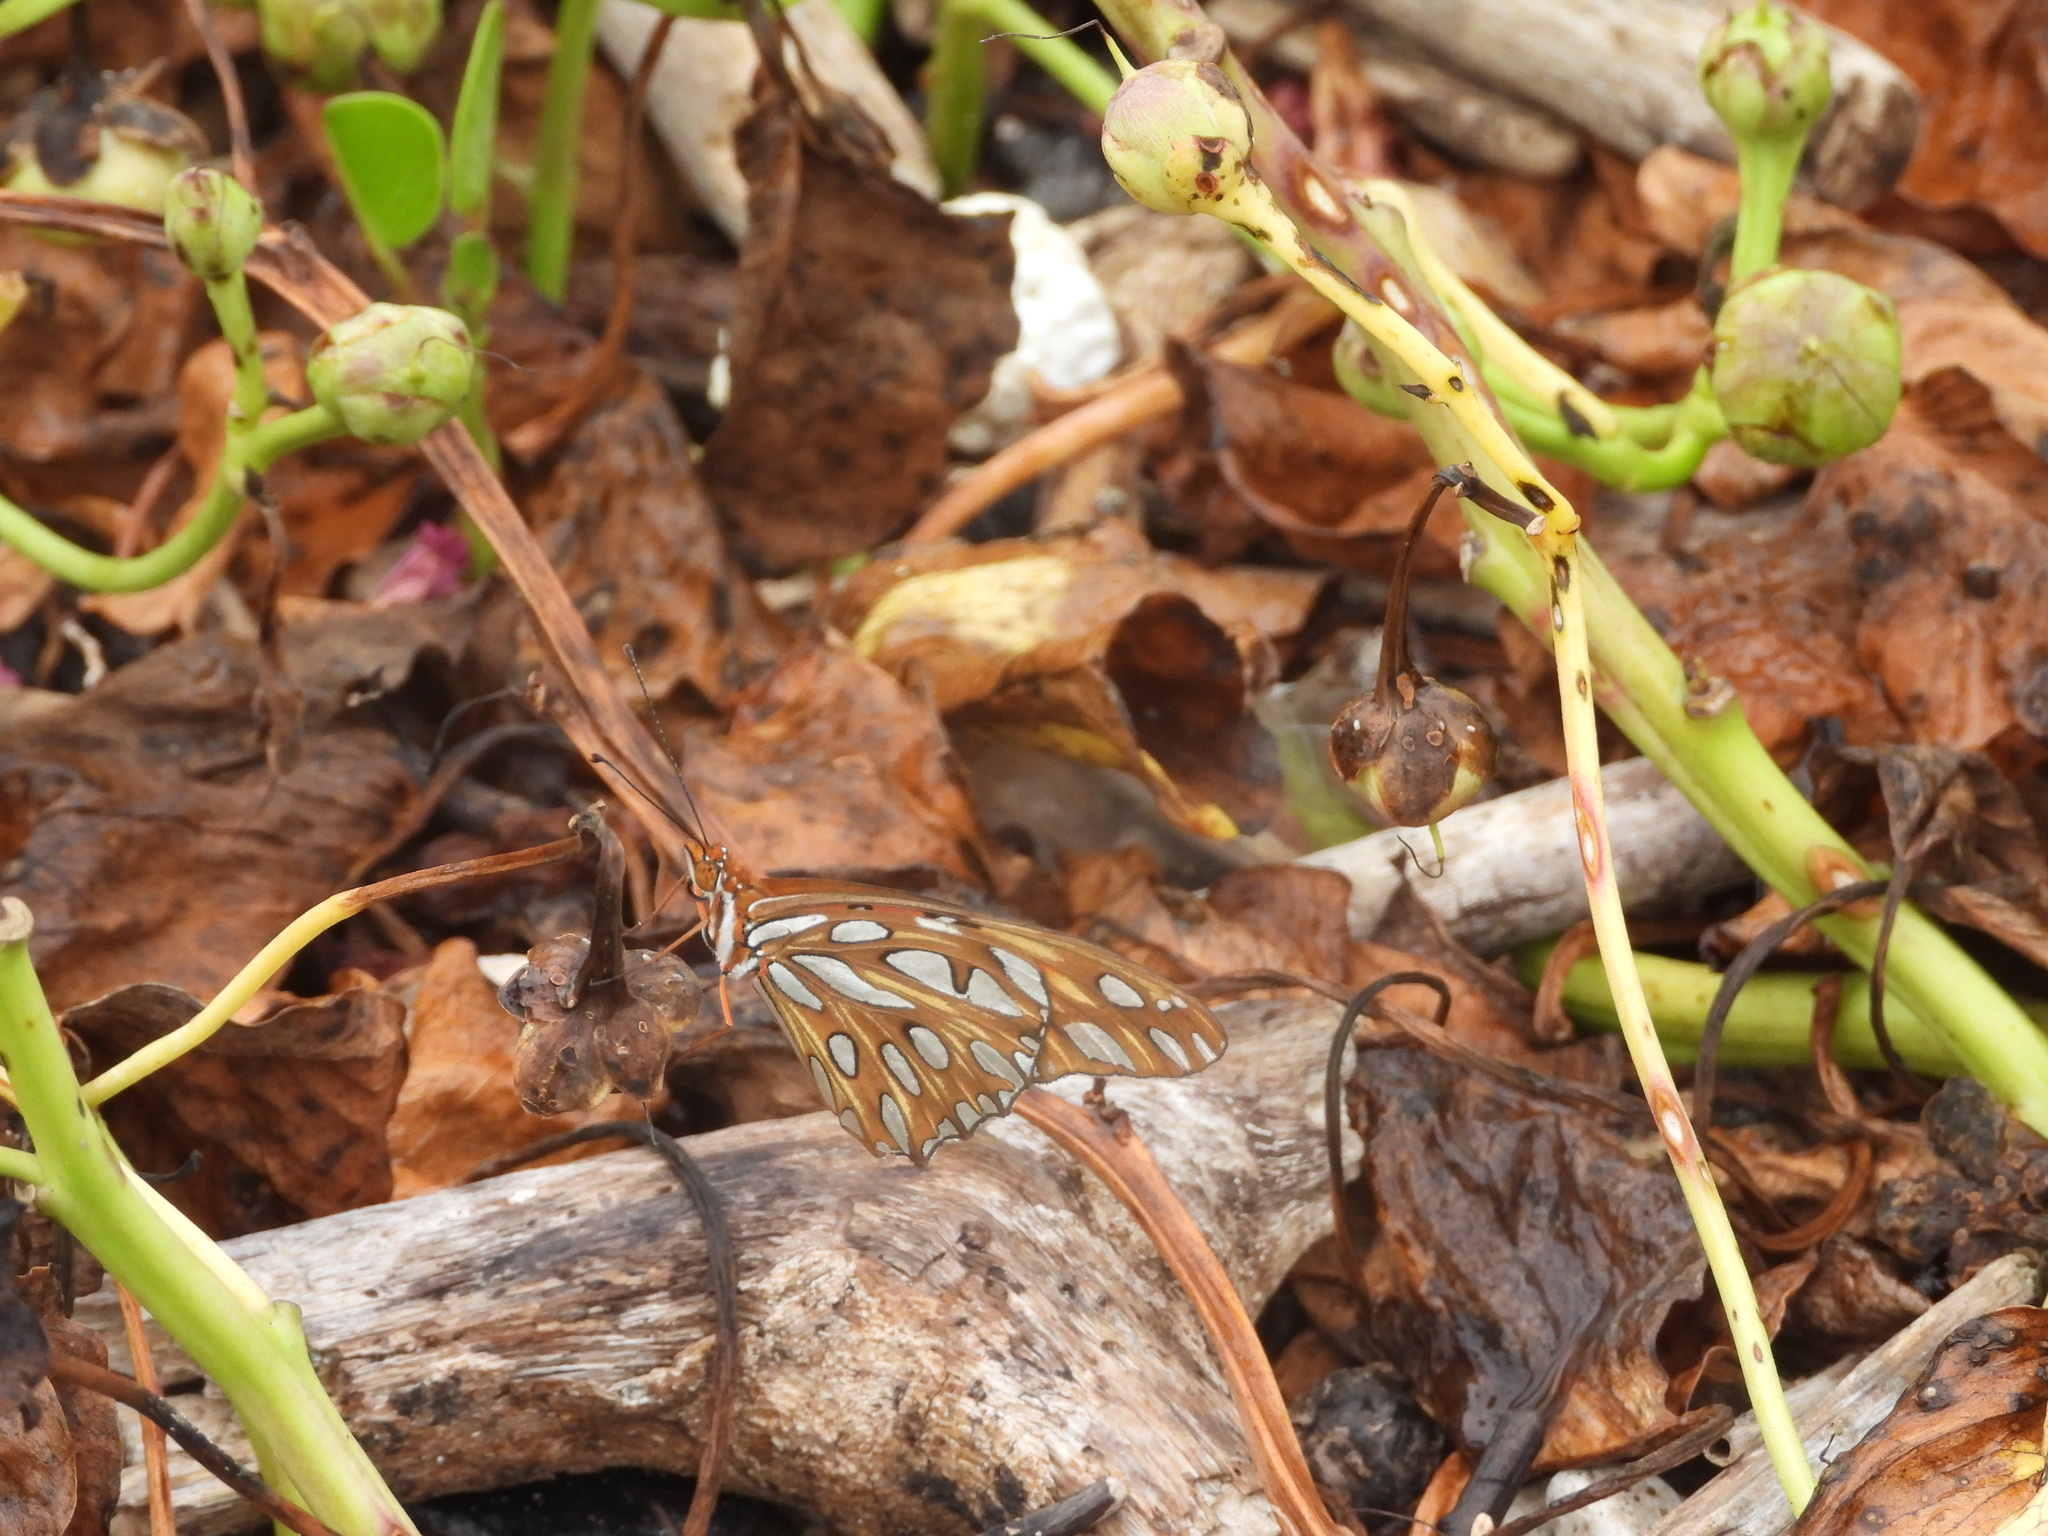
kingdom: Animalia
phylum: Arthropoda
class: Insecta
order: Lepidoptera
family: Nymphalidae
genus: Dione
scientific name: Dione vanillae
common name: Gulf fritillary
